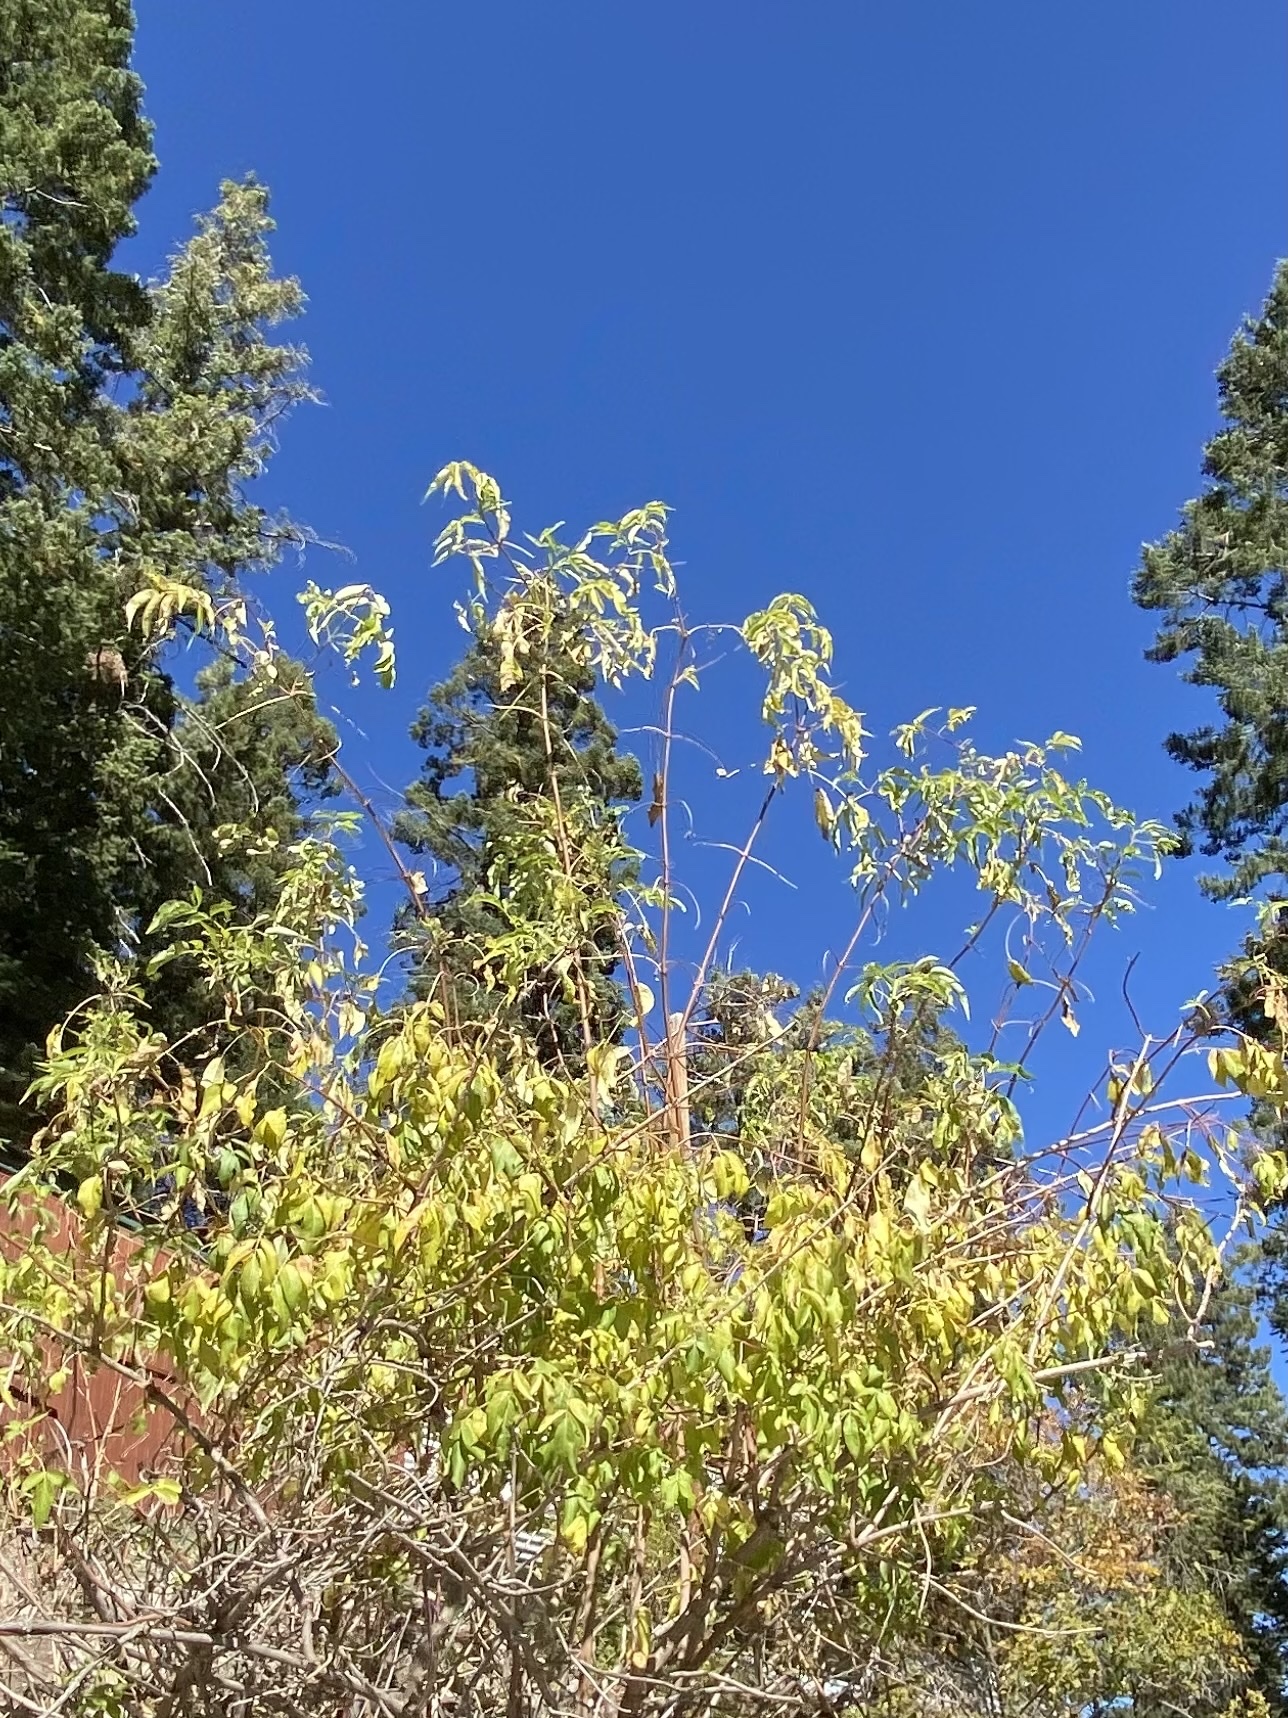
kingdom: Plantae
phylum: Tracheophyta
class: Magnoliopsida
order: Dipsacales
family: Viburnaceae
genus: Sambucus
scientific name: Sambucus cerulea
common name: Blue elder
